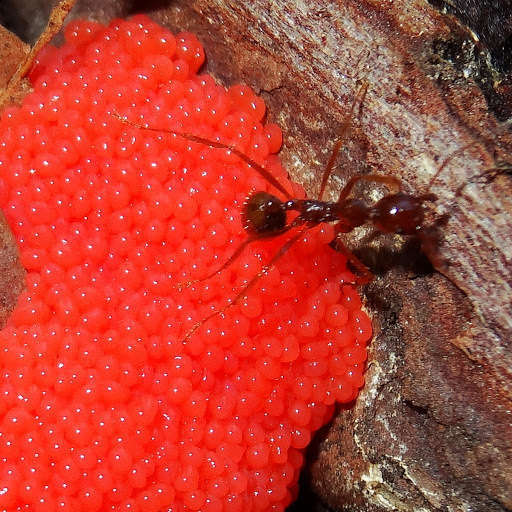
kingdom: Protozoa
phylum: Mycetozoa
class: Myxomycetes
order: Cribrariales
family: Tubiferaceae
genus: Tubifera
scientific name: Tubifera ferruginosa
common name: Red raspberry slime mold
